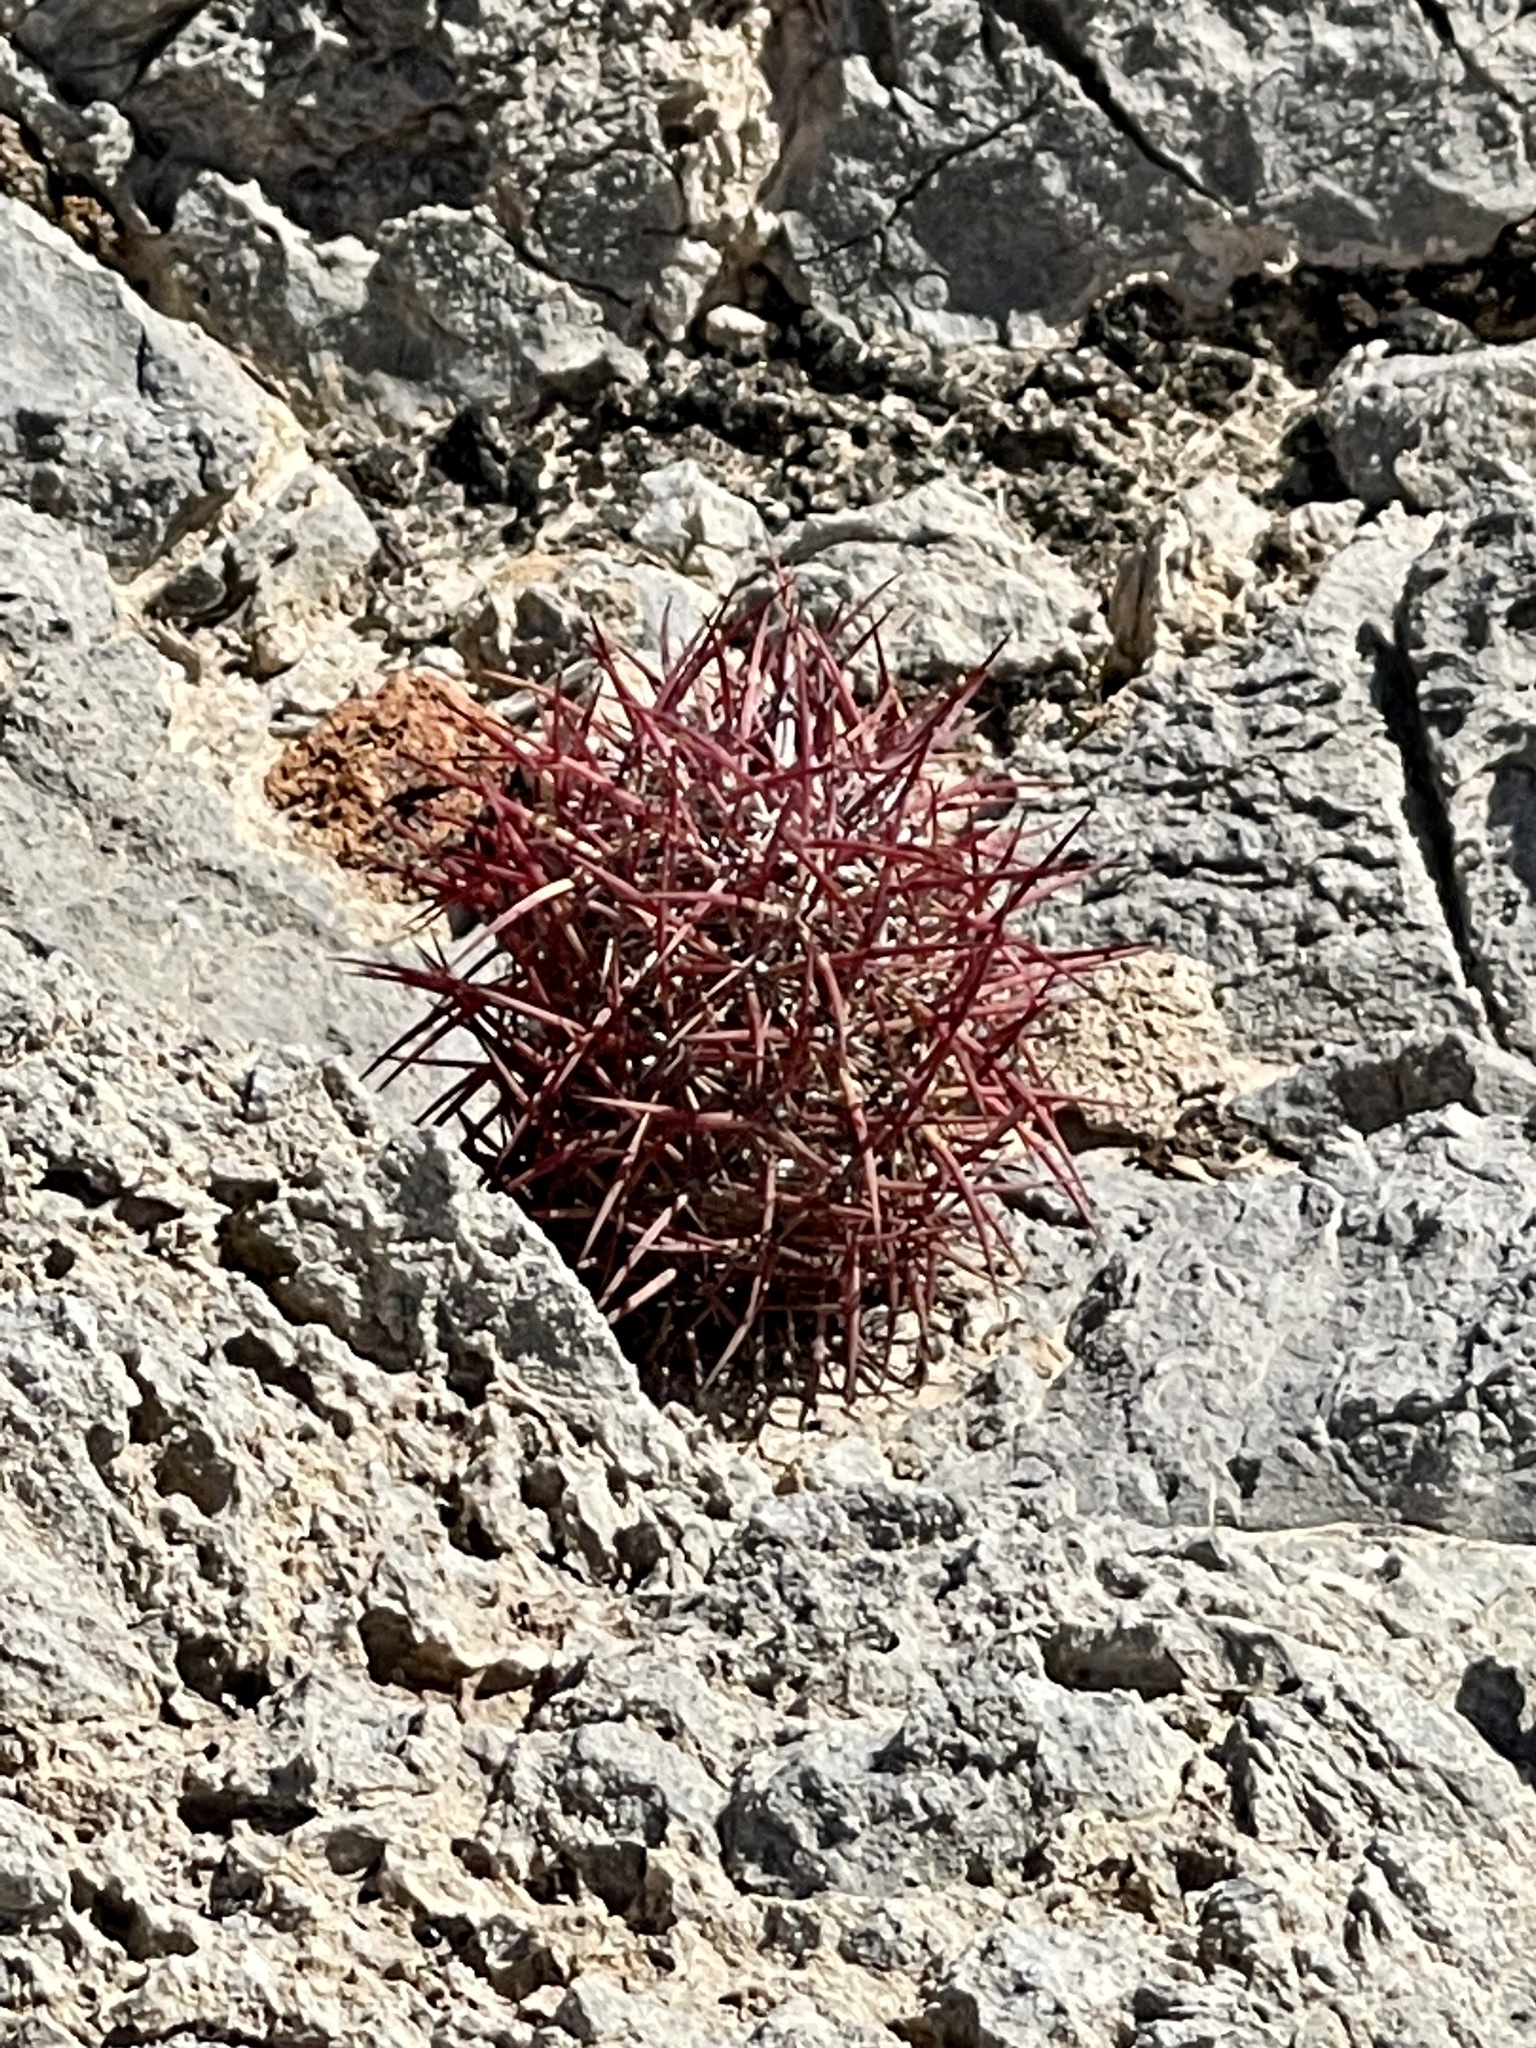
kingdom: Plantae
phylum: Tracheophyta
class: Magnoliopsida
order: Caryophyllales
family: Cactaceae
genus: Ferocactus
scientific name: Ferocactus cylindraceus
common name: California barrel cactus
